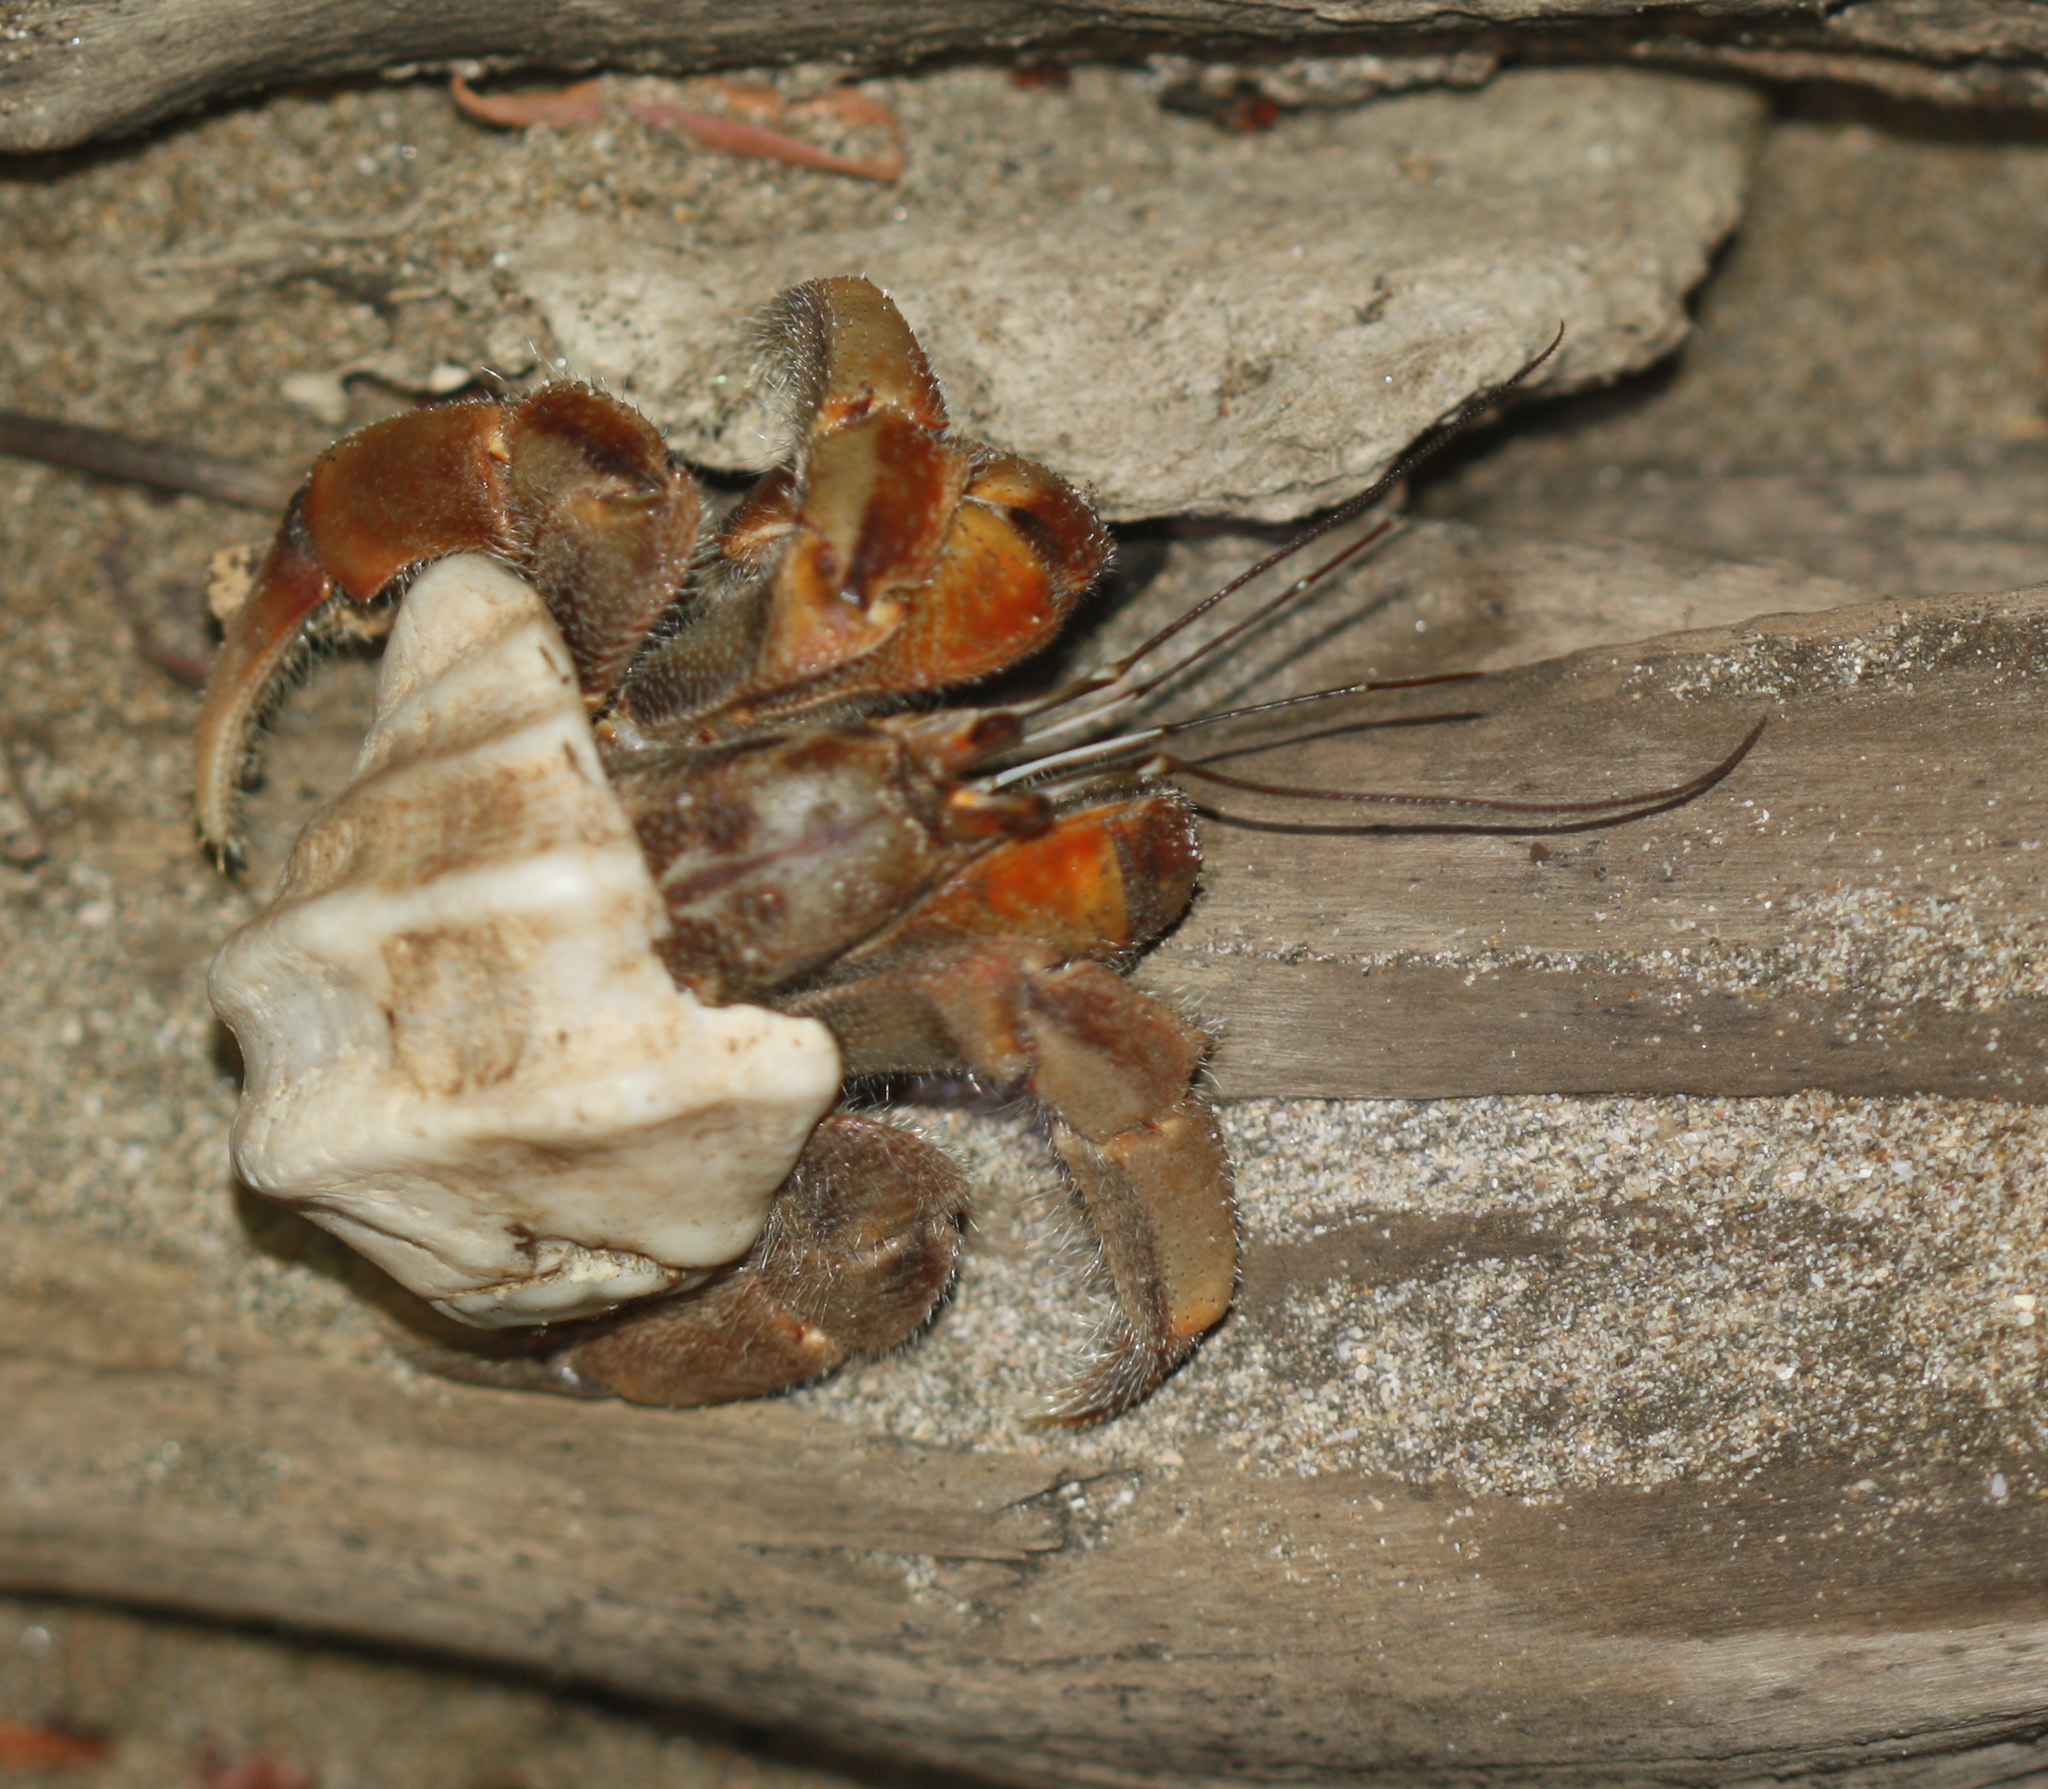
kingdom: Animalia
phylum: Arthropoda
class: Malacostraca
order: Decapoda
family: Coenobitidae
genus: Coenobita
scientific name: Coenobita compressus
